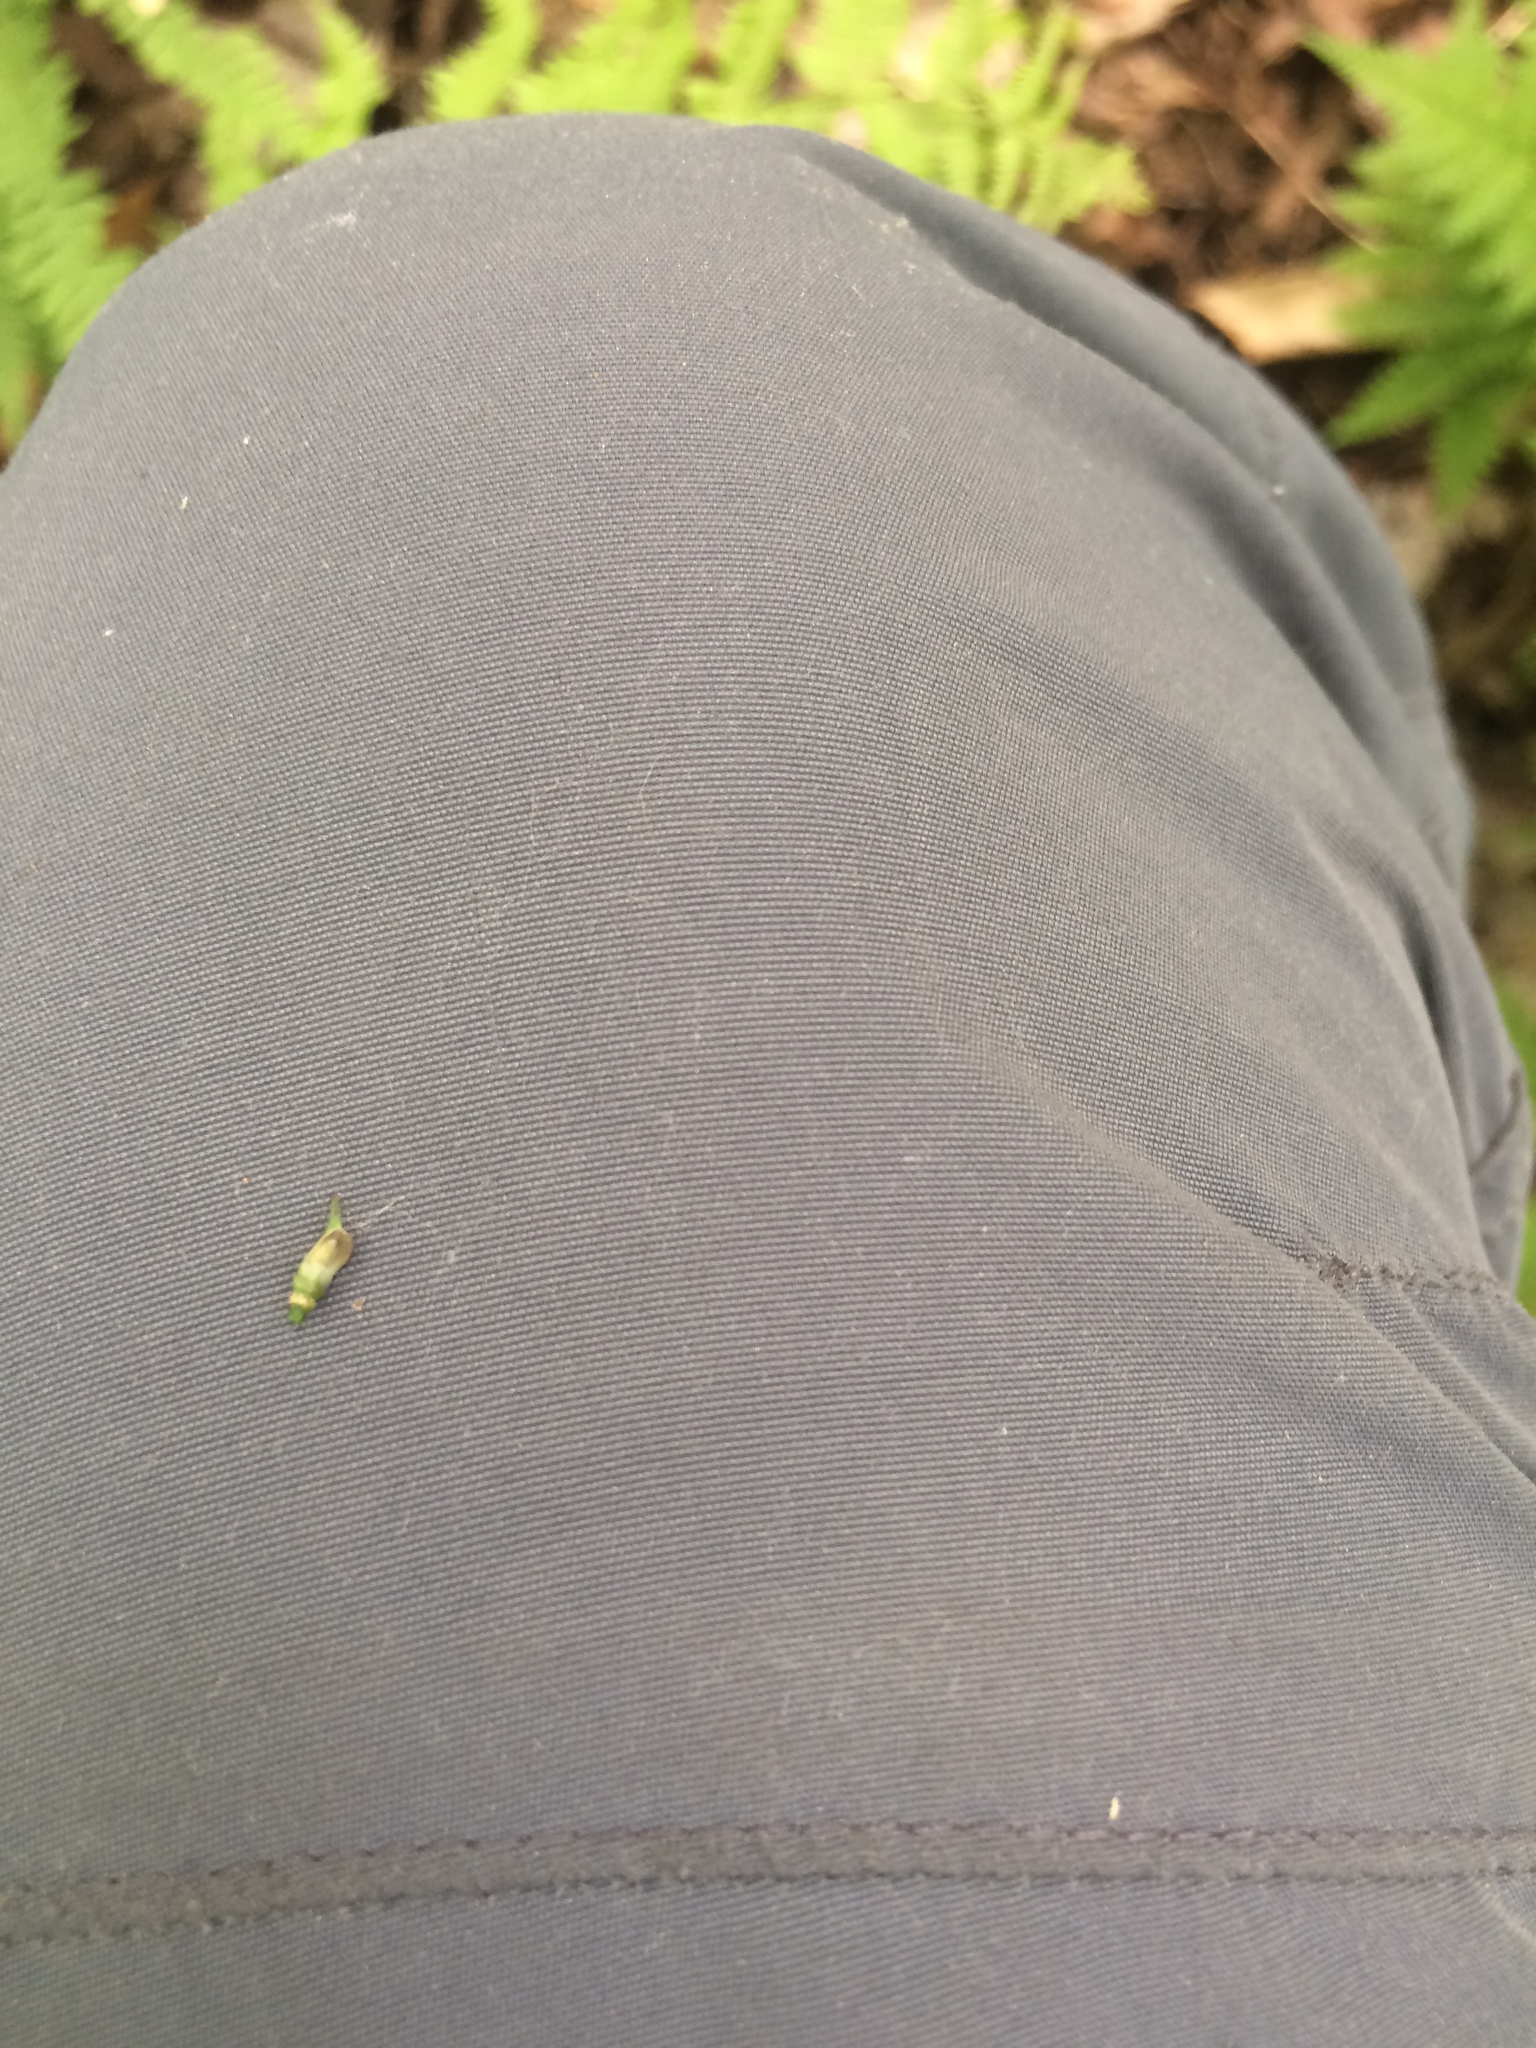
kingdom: Plantae
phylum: Tracheophyta
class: Magnoliopsida
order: Ranunculales
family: Berberidaceae
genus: Caulophyllum
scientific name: Caulophyllum
